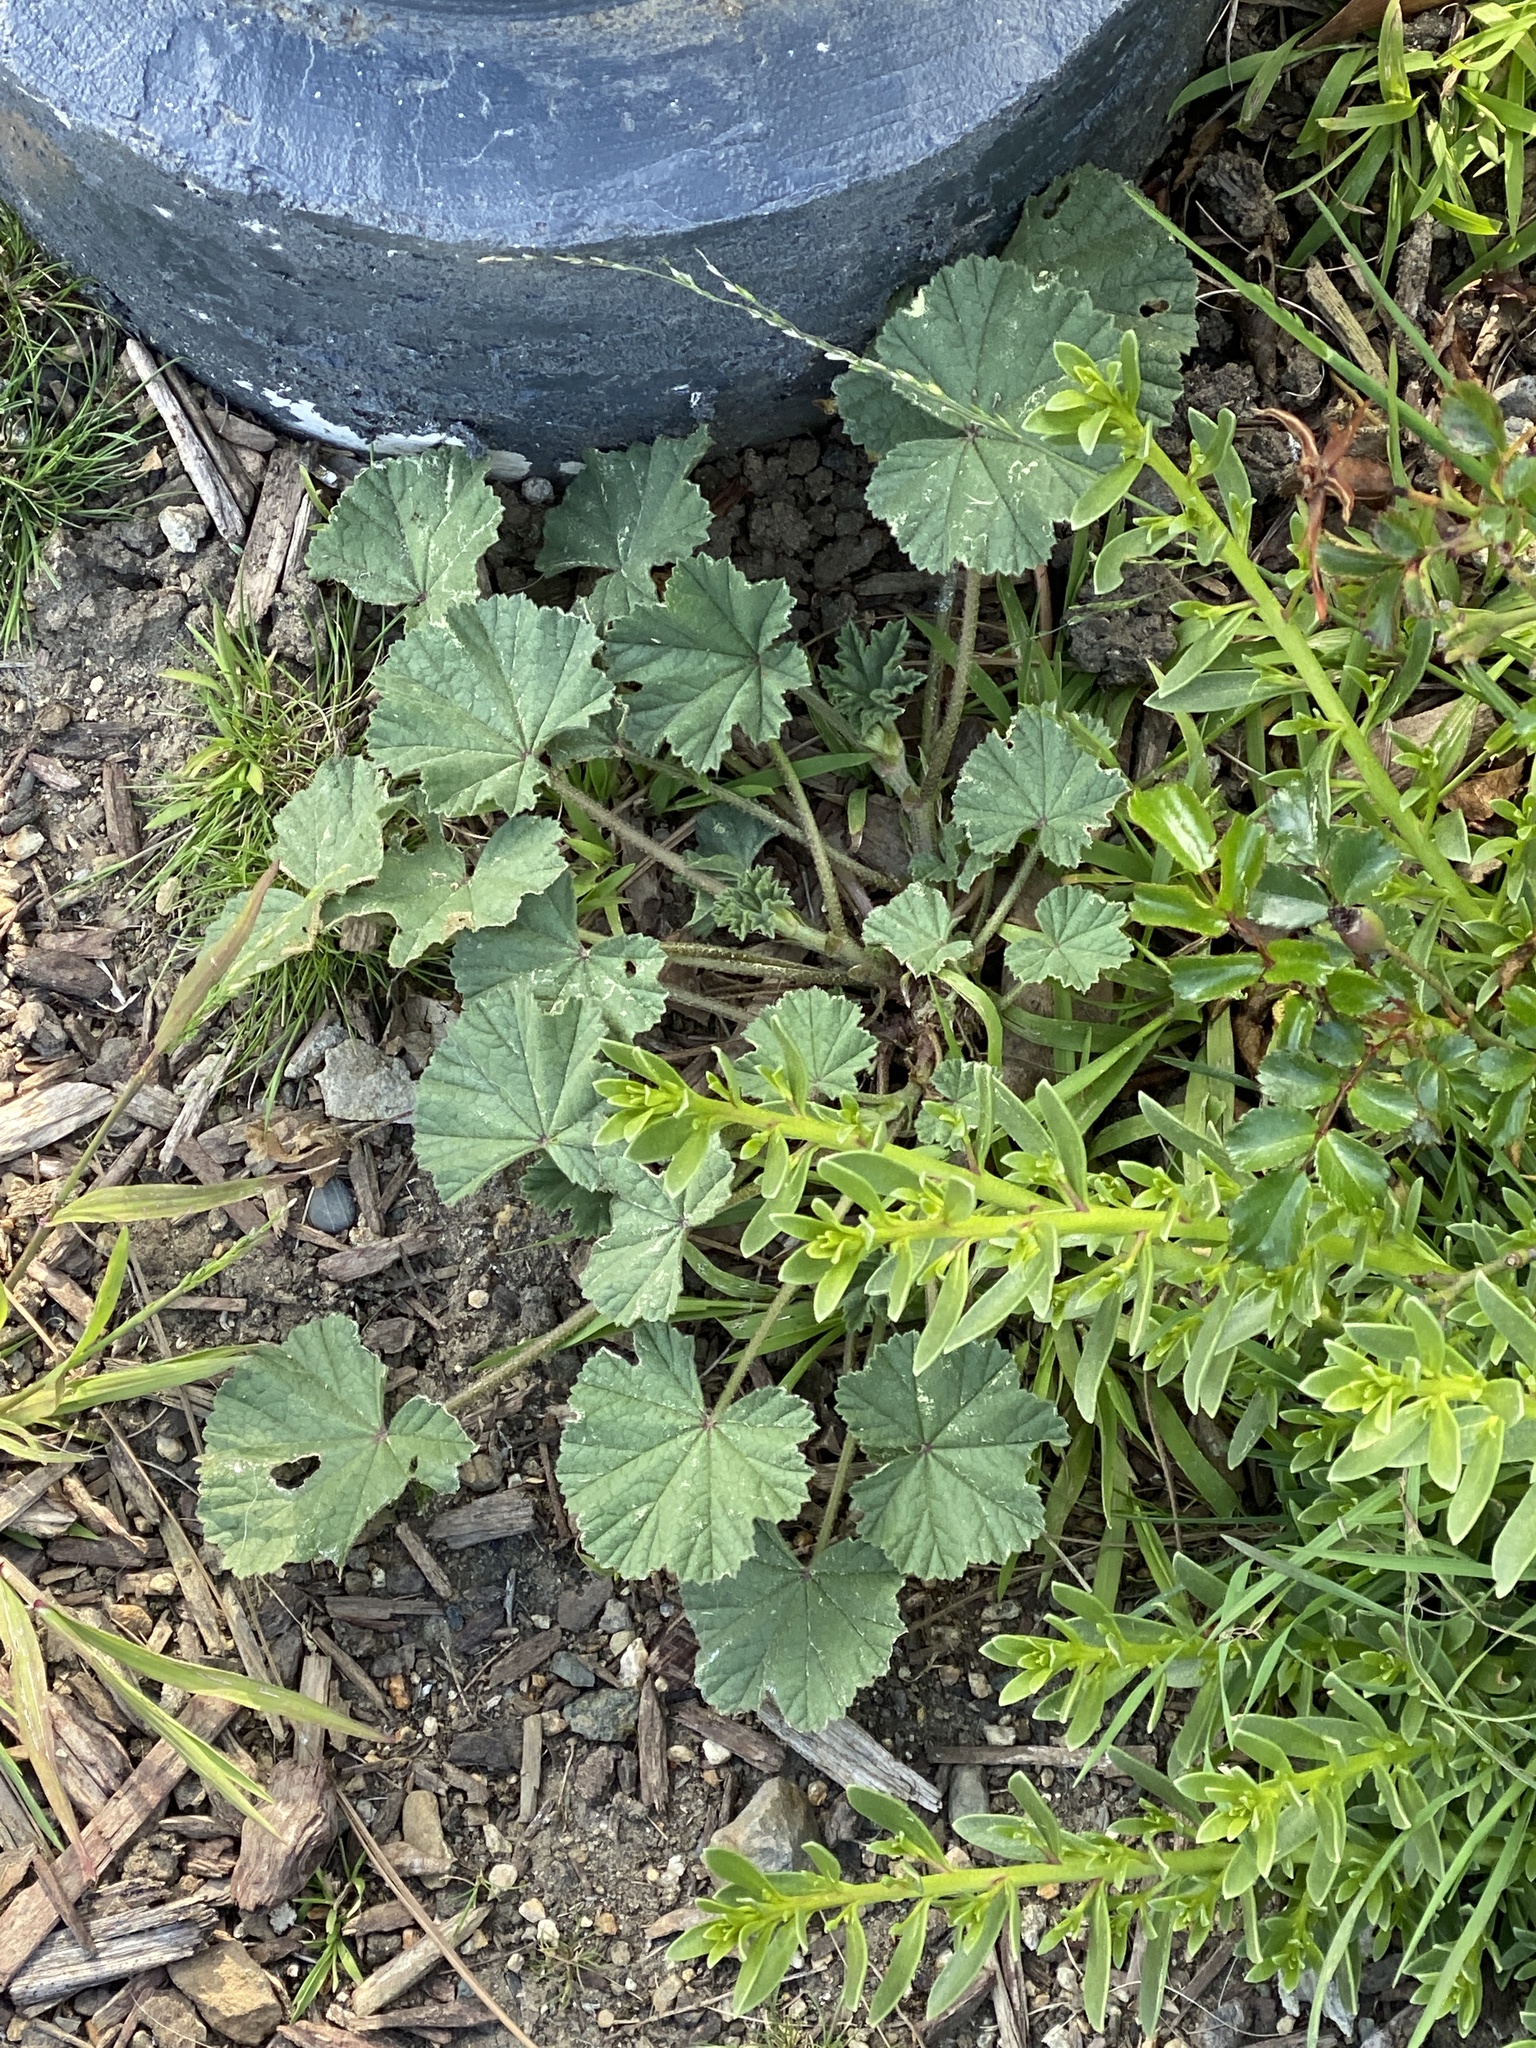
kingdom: Plantae
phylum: Tracheophyta
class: Magnoliopsida
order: Malvales
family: Malvaceae
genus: Malva
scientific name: Malva
